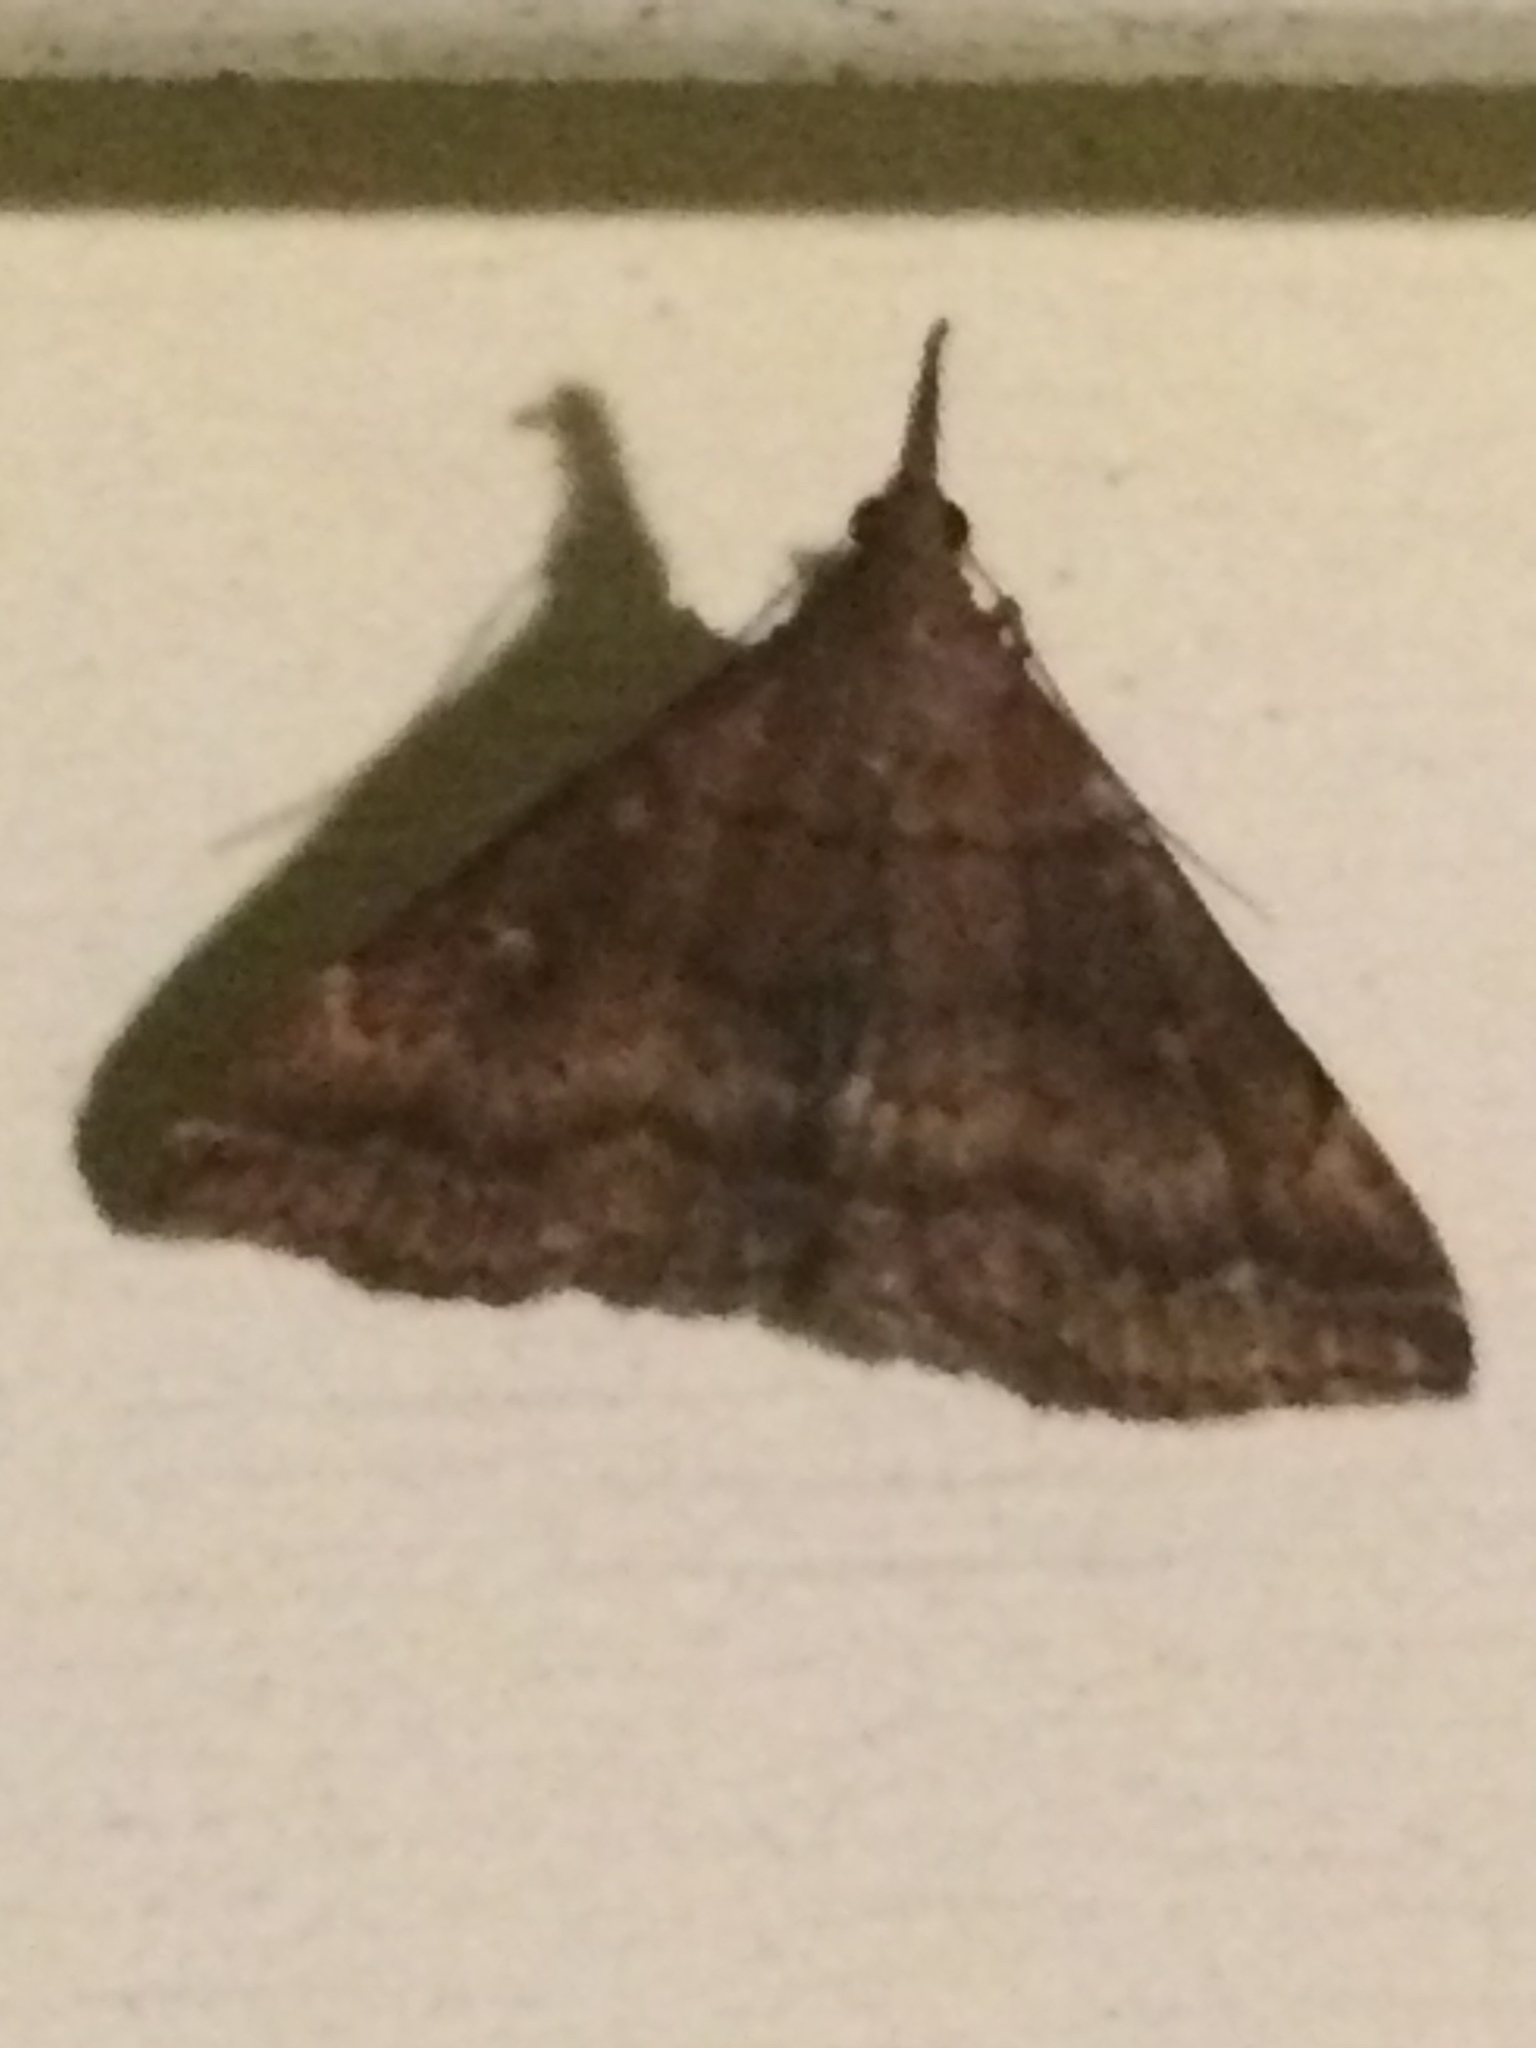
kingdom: Animalia
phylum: Arthropoda
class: Insecta
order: Lepidoptera
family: Erebidae
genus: Renia
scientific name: Renia factiosalis
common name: Sociable renia moth
